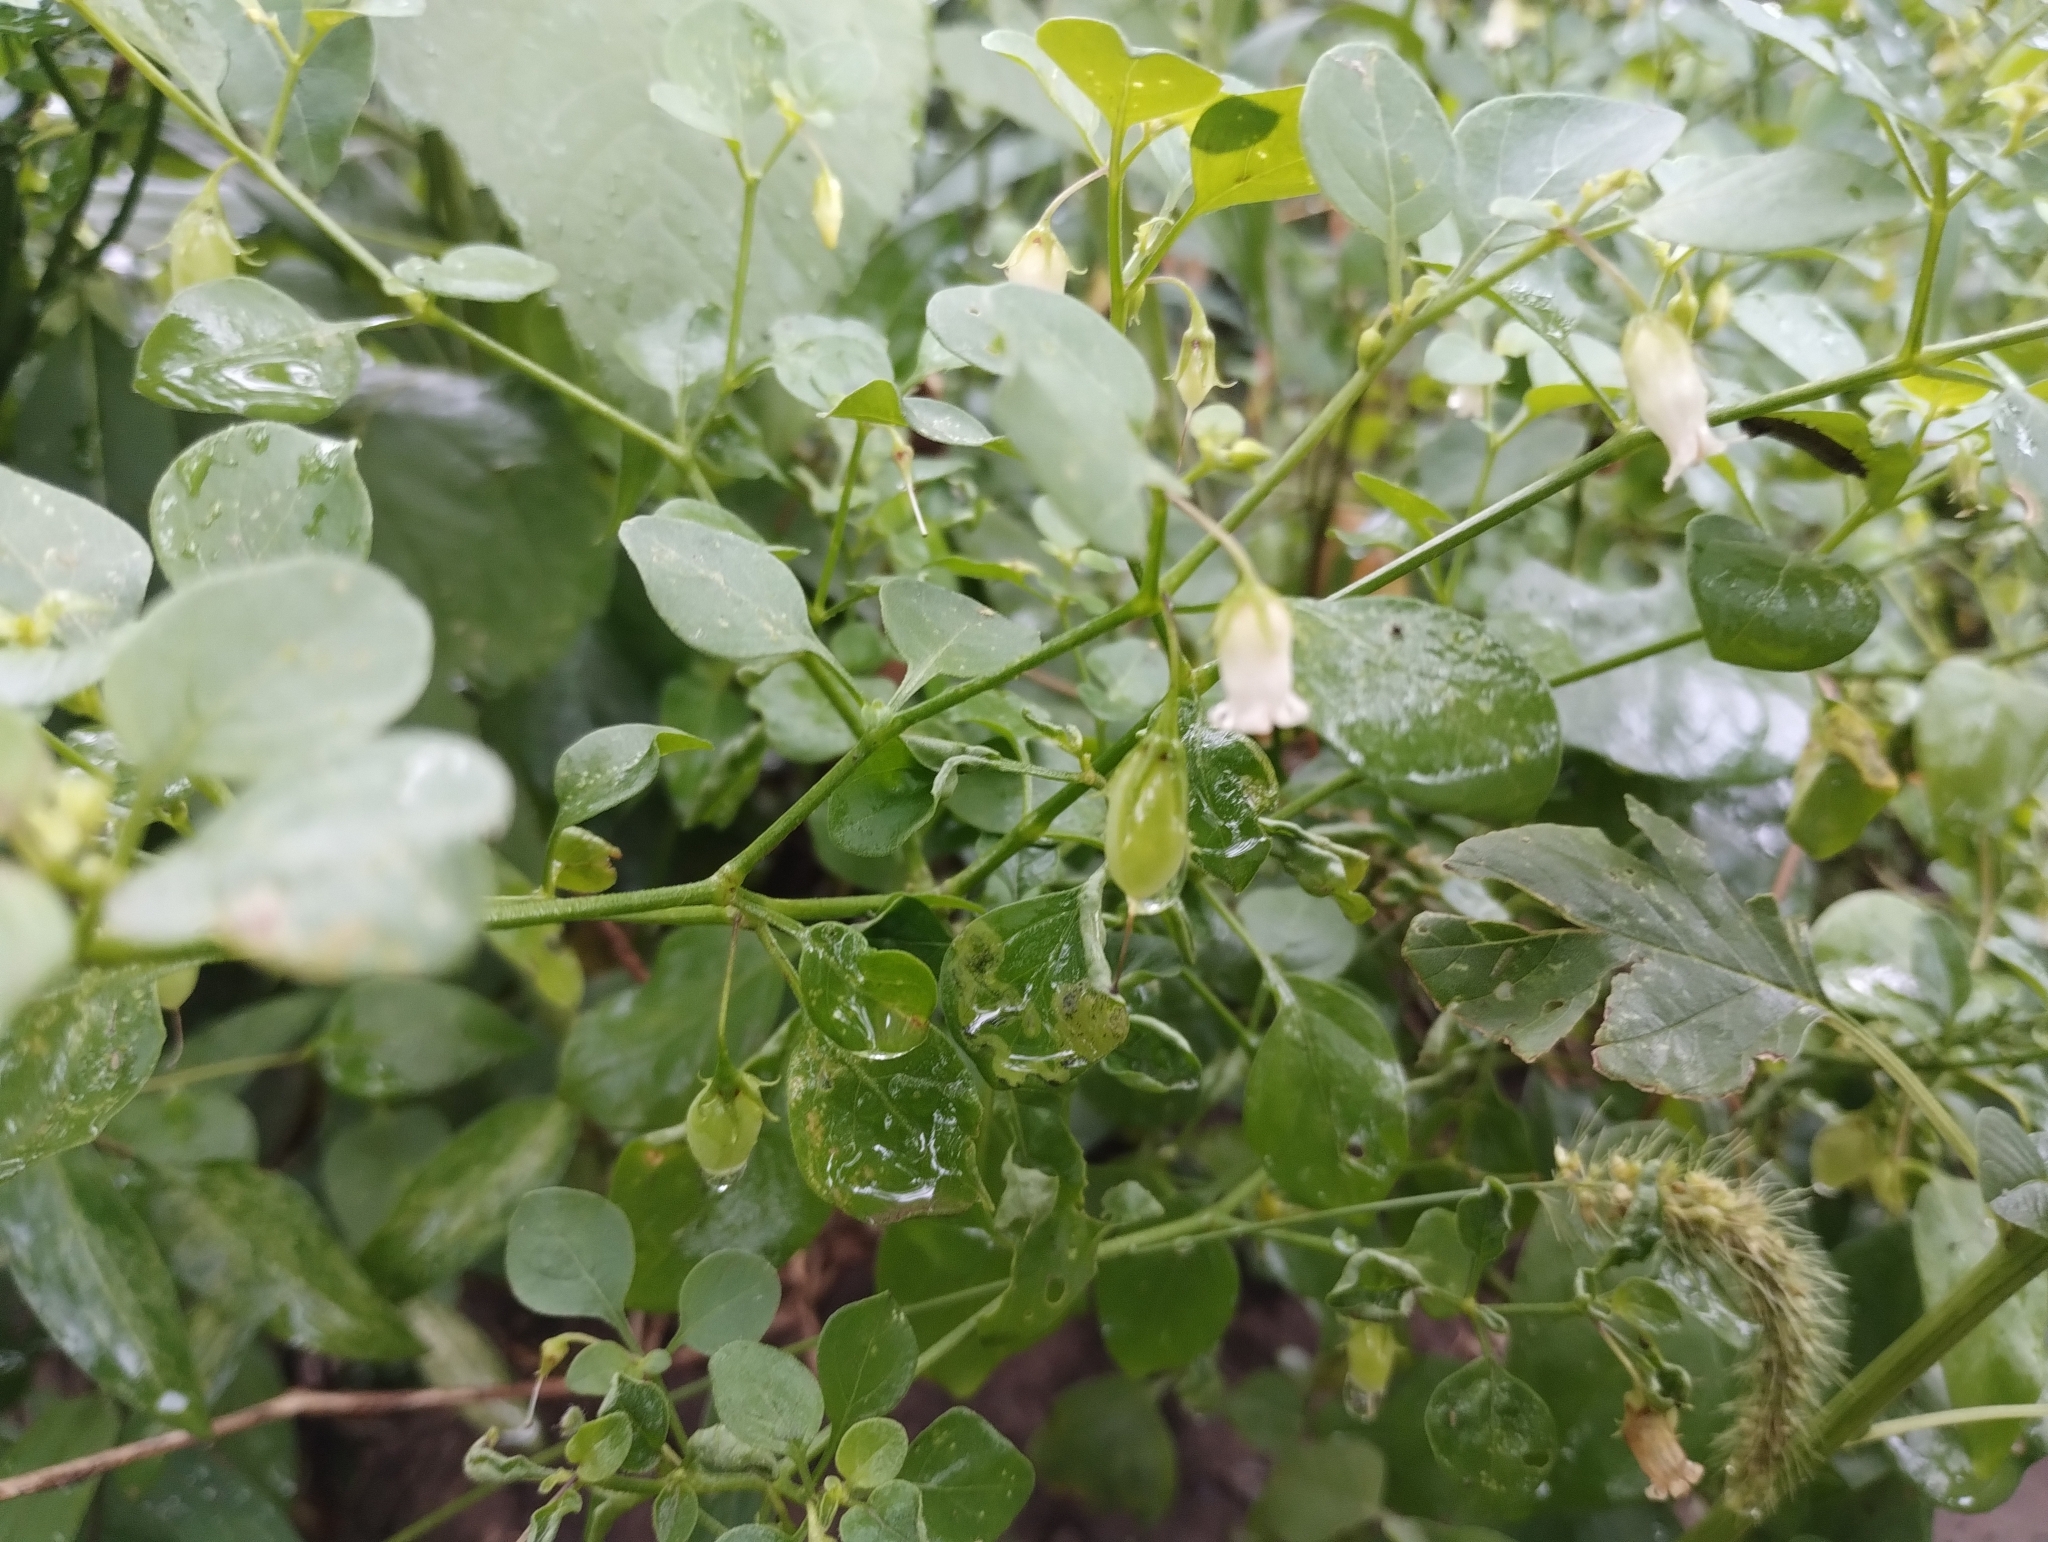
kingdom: Plantae
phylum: Tracheophyta
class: Magnoliopsida
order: Solanales
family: Solanaceae
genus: Salpichroa
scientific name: Salpichroa origanifolia
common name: Lily-of-the-valley-vine
